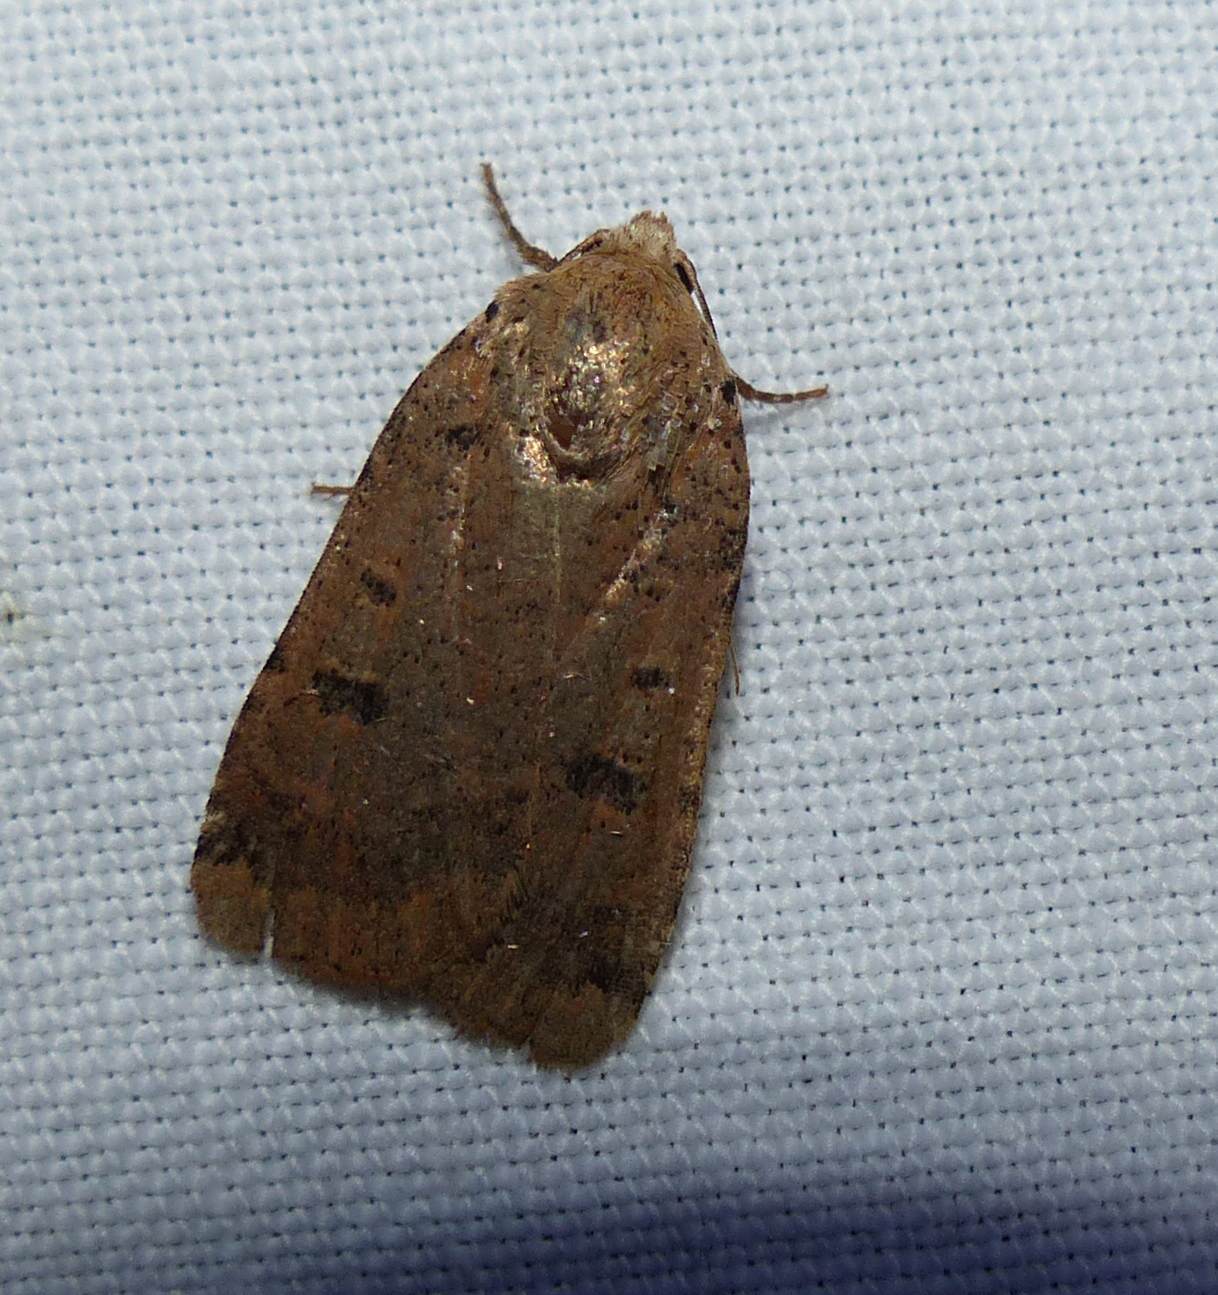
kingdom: Animalia
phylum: Arthropoda
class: Insecta
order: Lepidoptera
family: Noctuidae
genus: Abagrotis
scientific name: Abagrotis cupida
